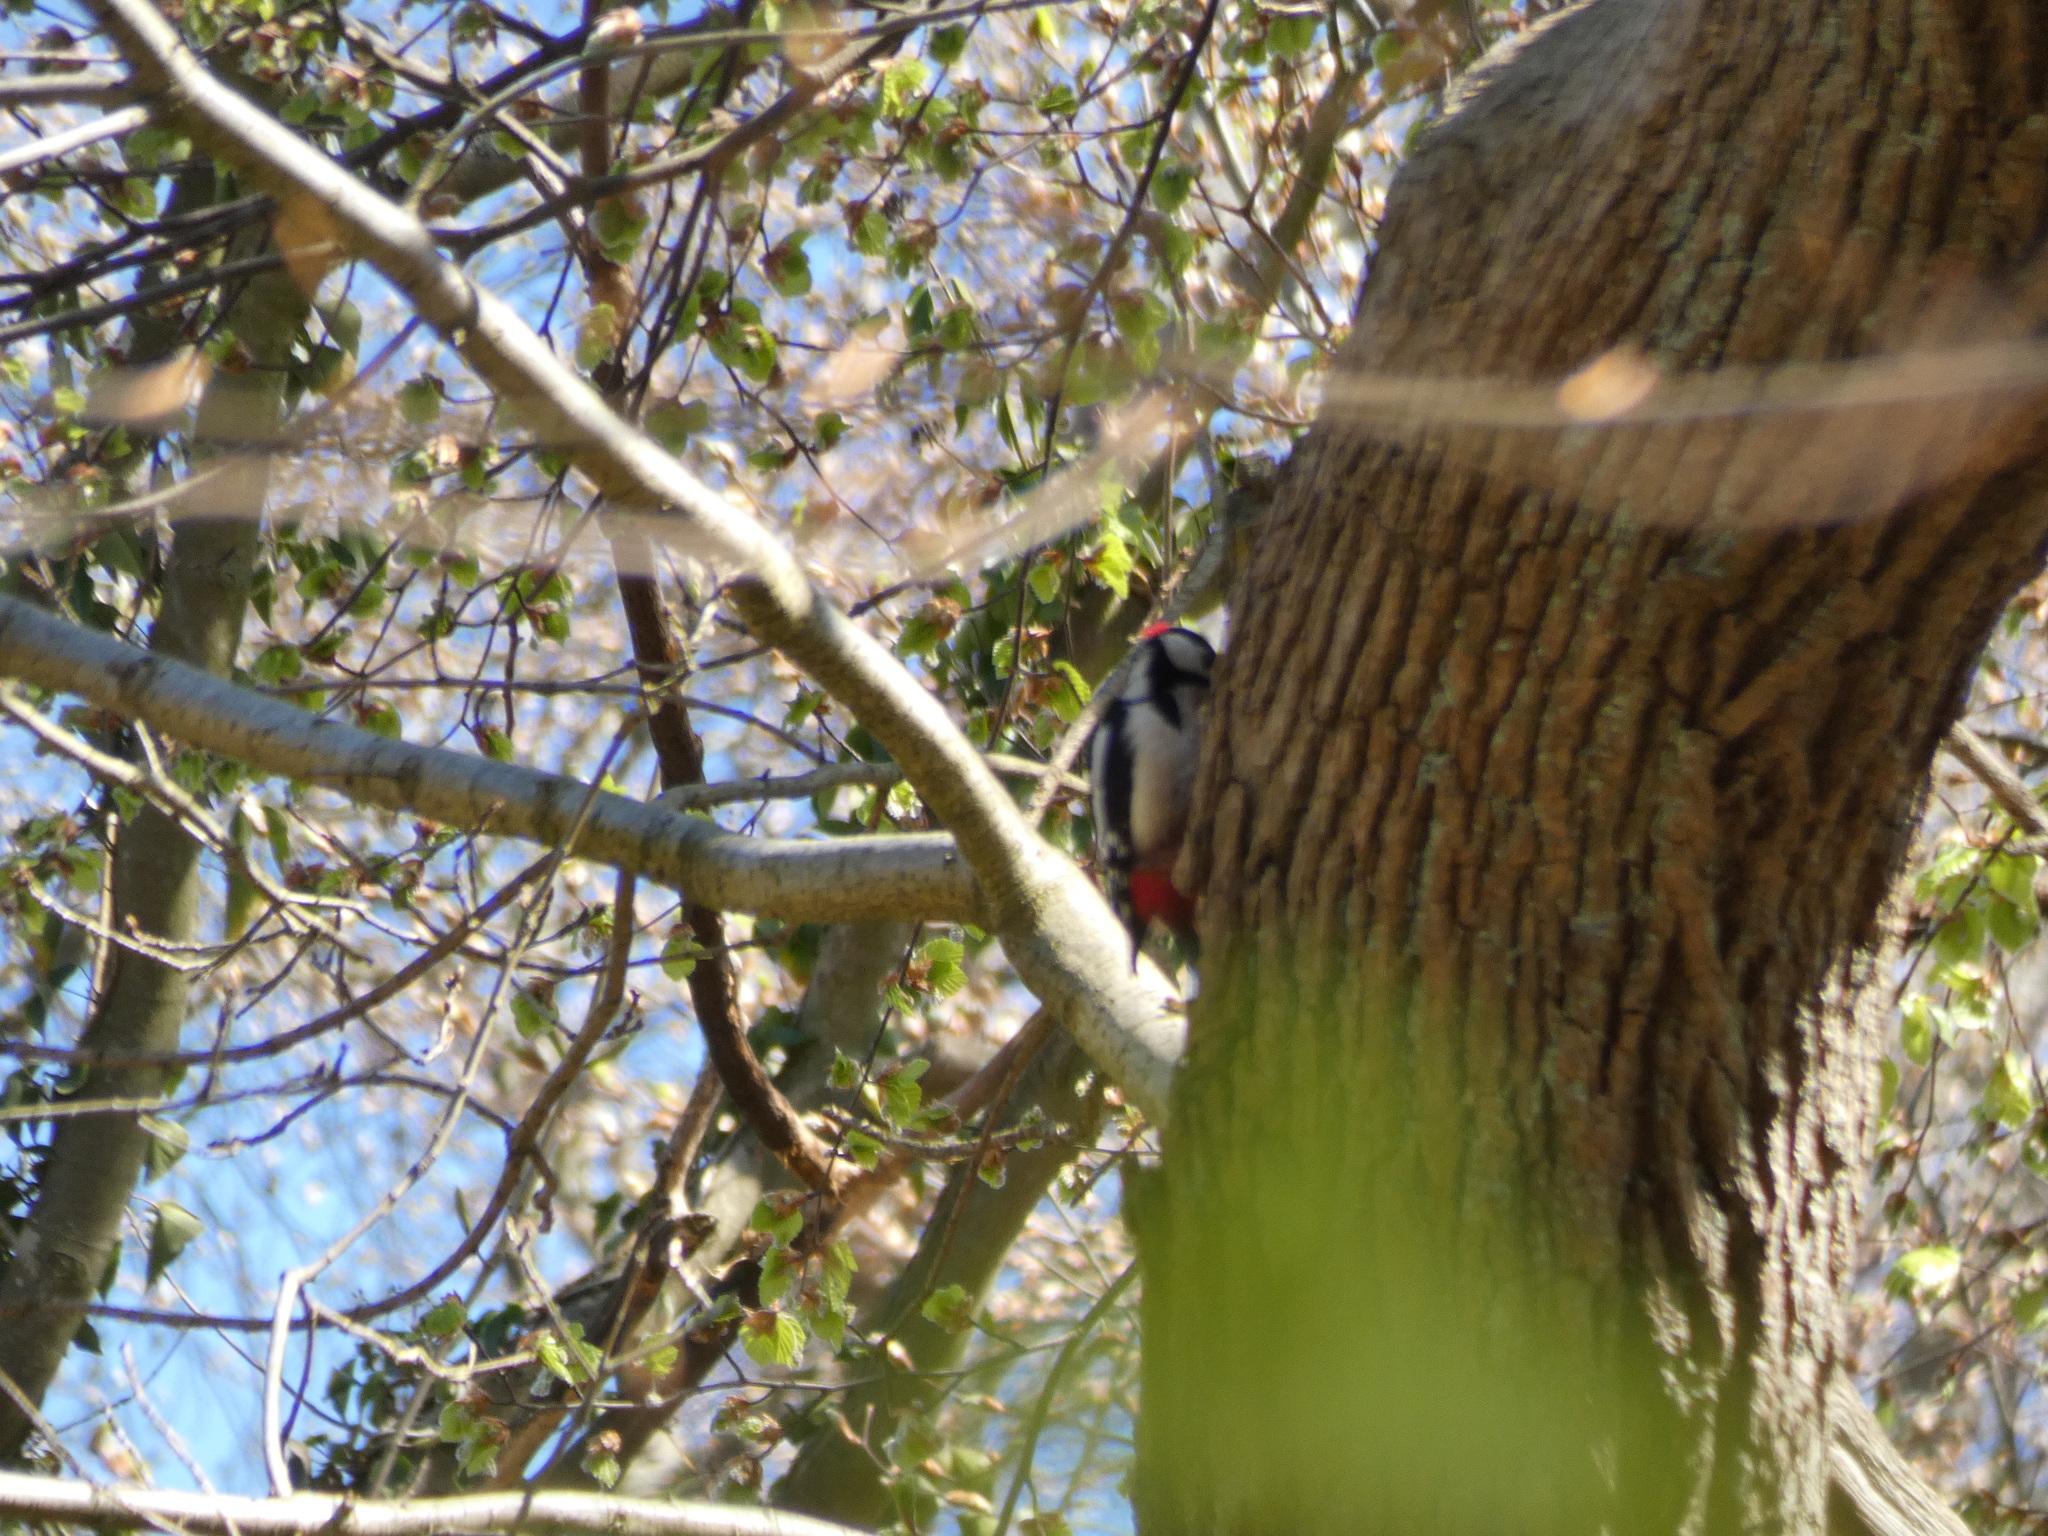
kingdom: Animalia
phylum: Chordata
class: Aves
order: Piciformes
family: Picidae
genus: Dendrocopos
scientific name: Dendrocopos major
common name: Great spotted woodpecker
